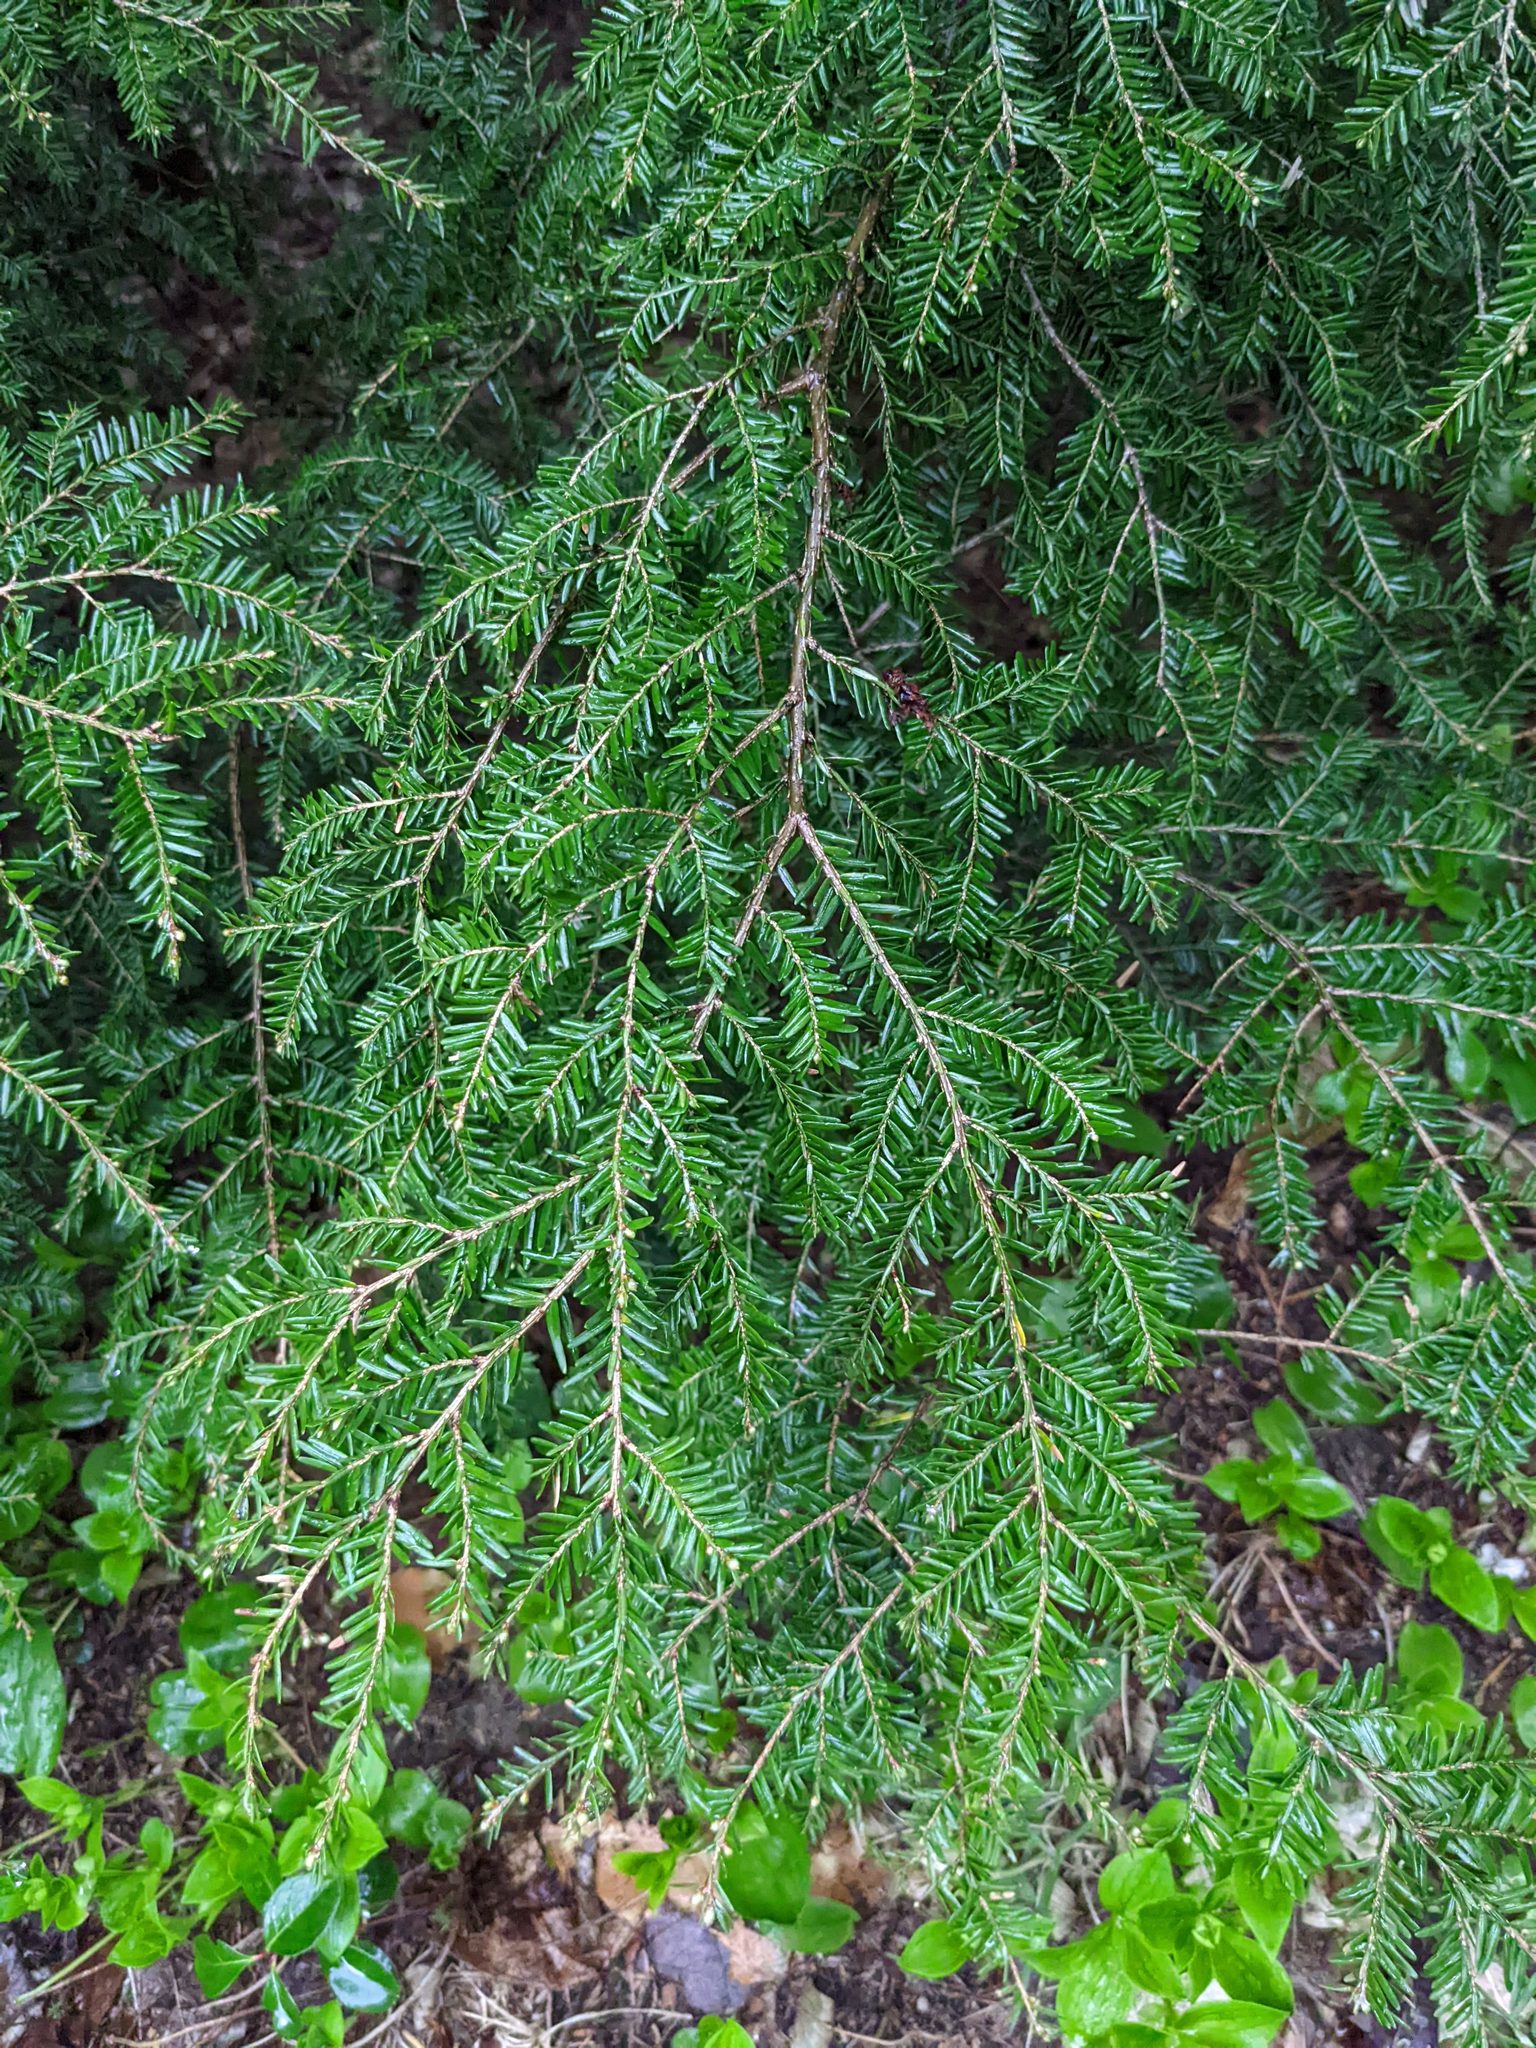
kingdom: Plantae
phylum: Tracheophyta
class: Pinopsida
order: Pinales
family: Pinaceae
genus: Tsuga
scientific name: Tsuga canadensis
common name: Eastern hemlock
